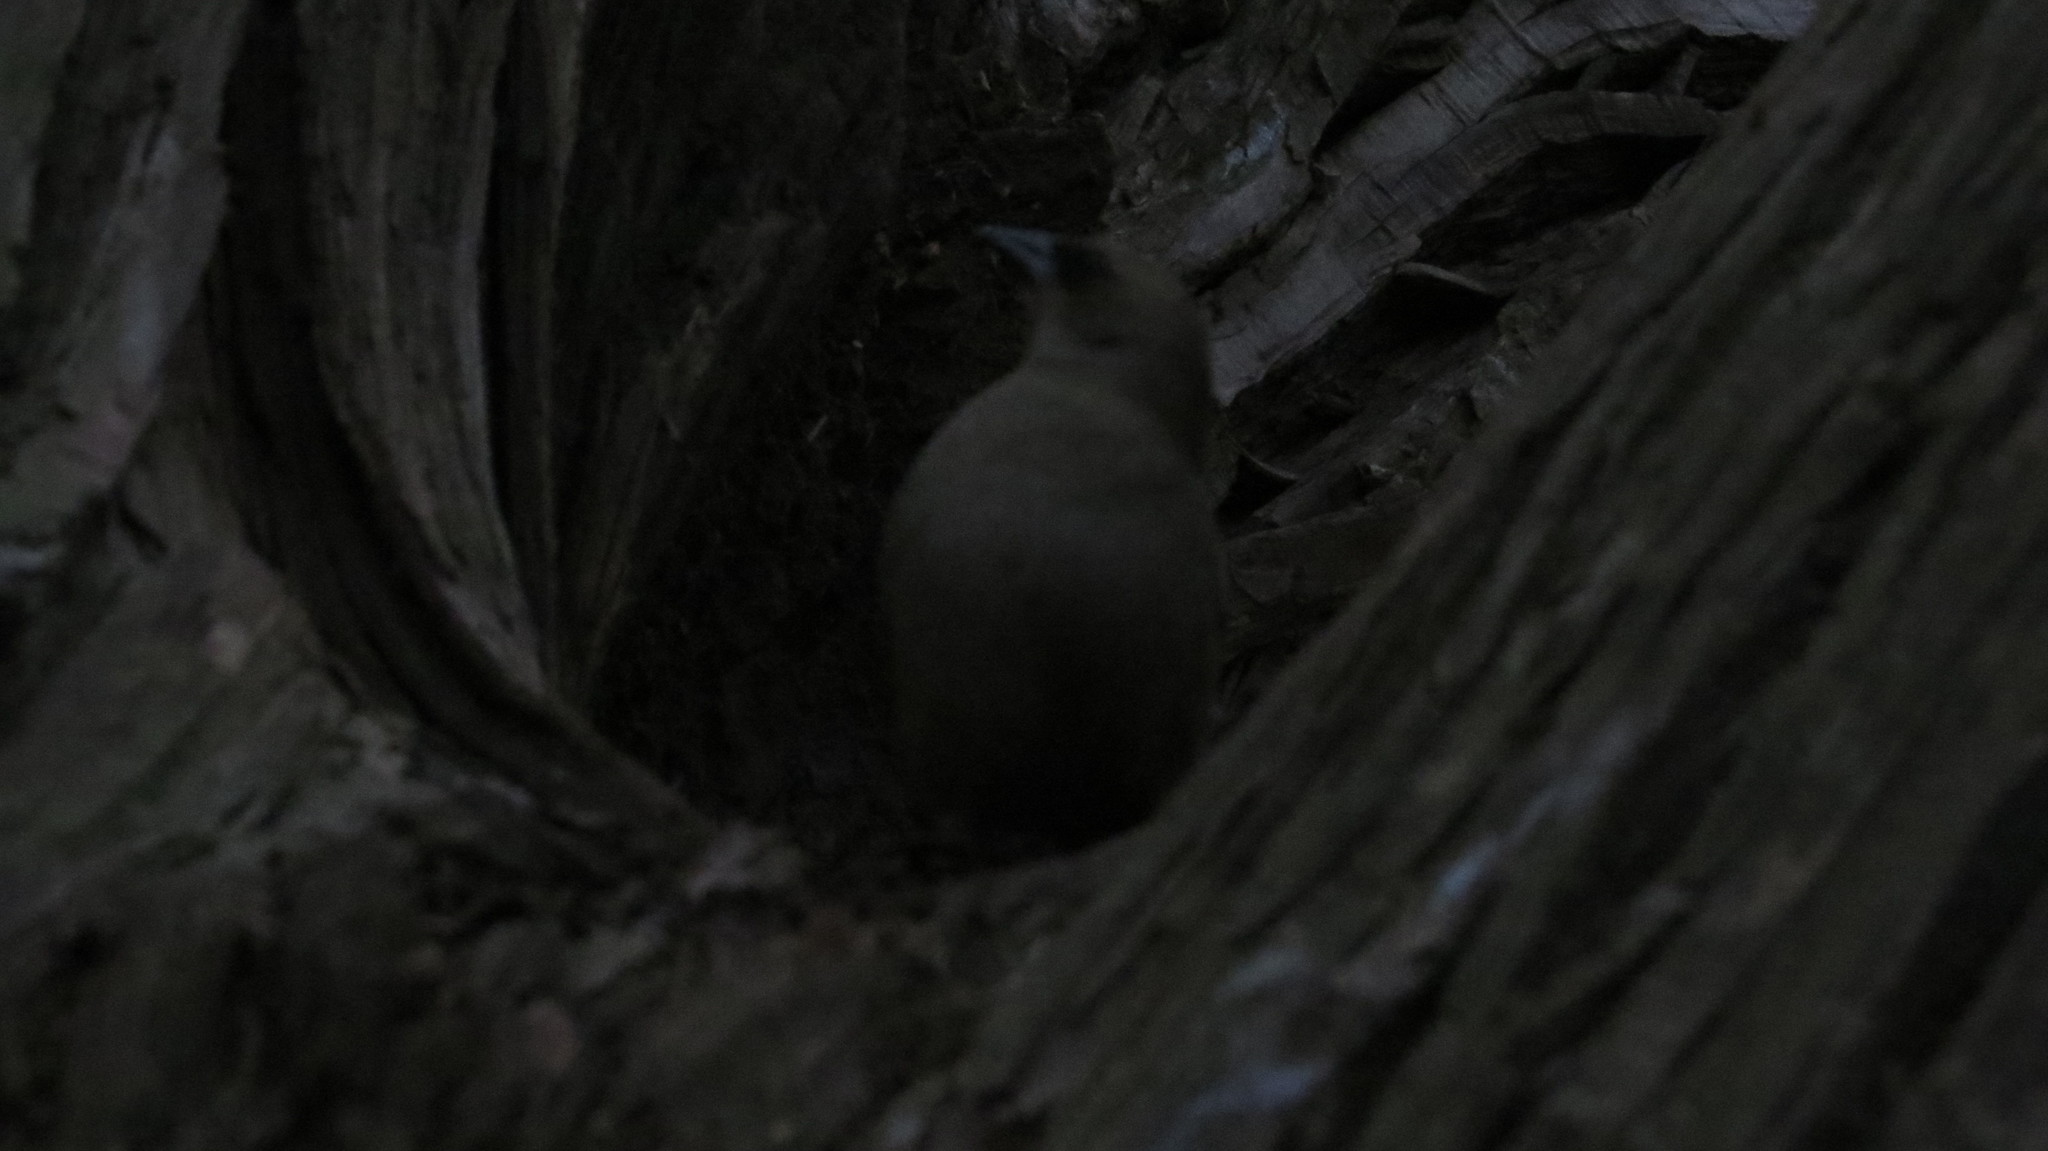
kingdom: Animalia
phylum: Chordata
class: Aves
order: Passeriformes
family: Icteridae
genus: Agelaioides
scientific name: Agelaioides badius
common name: Baywing
